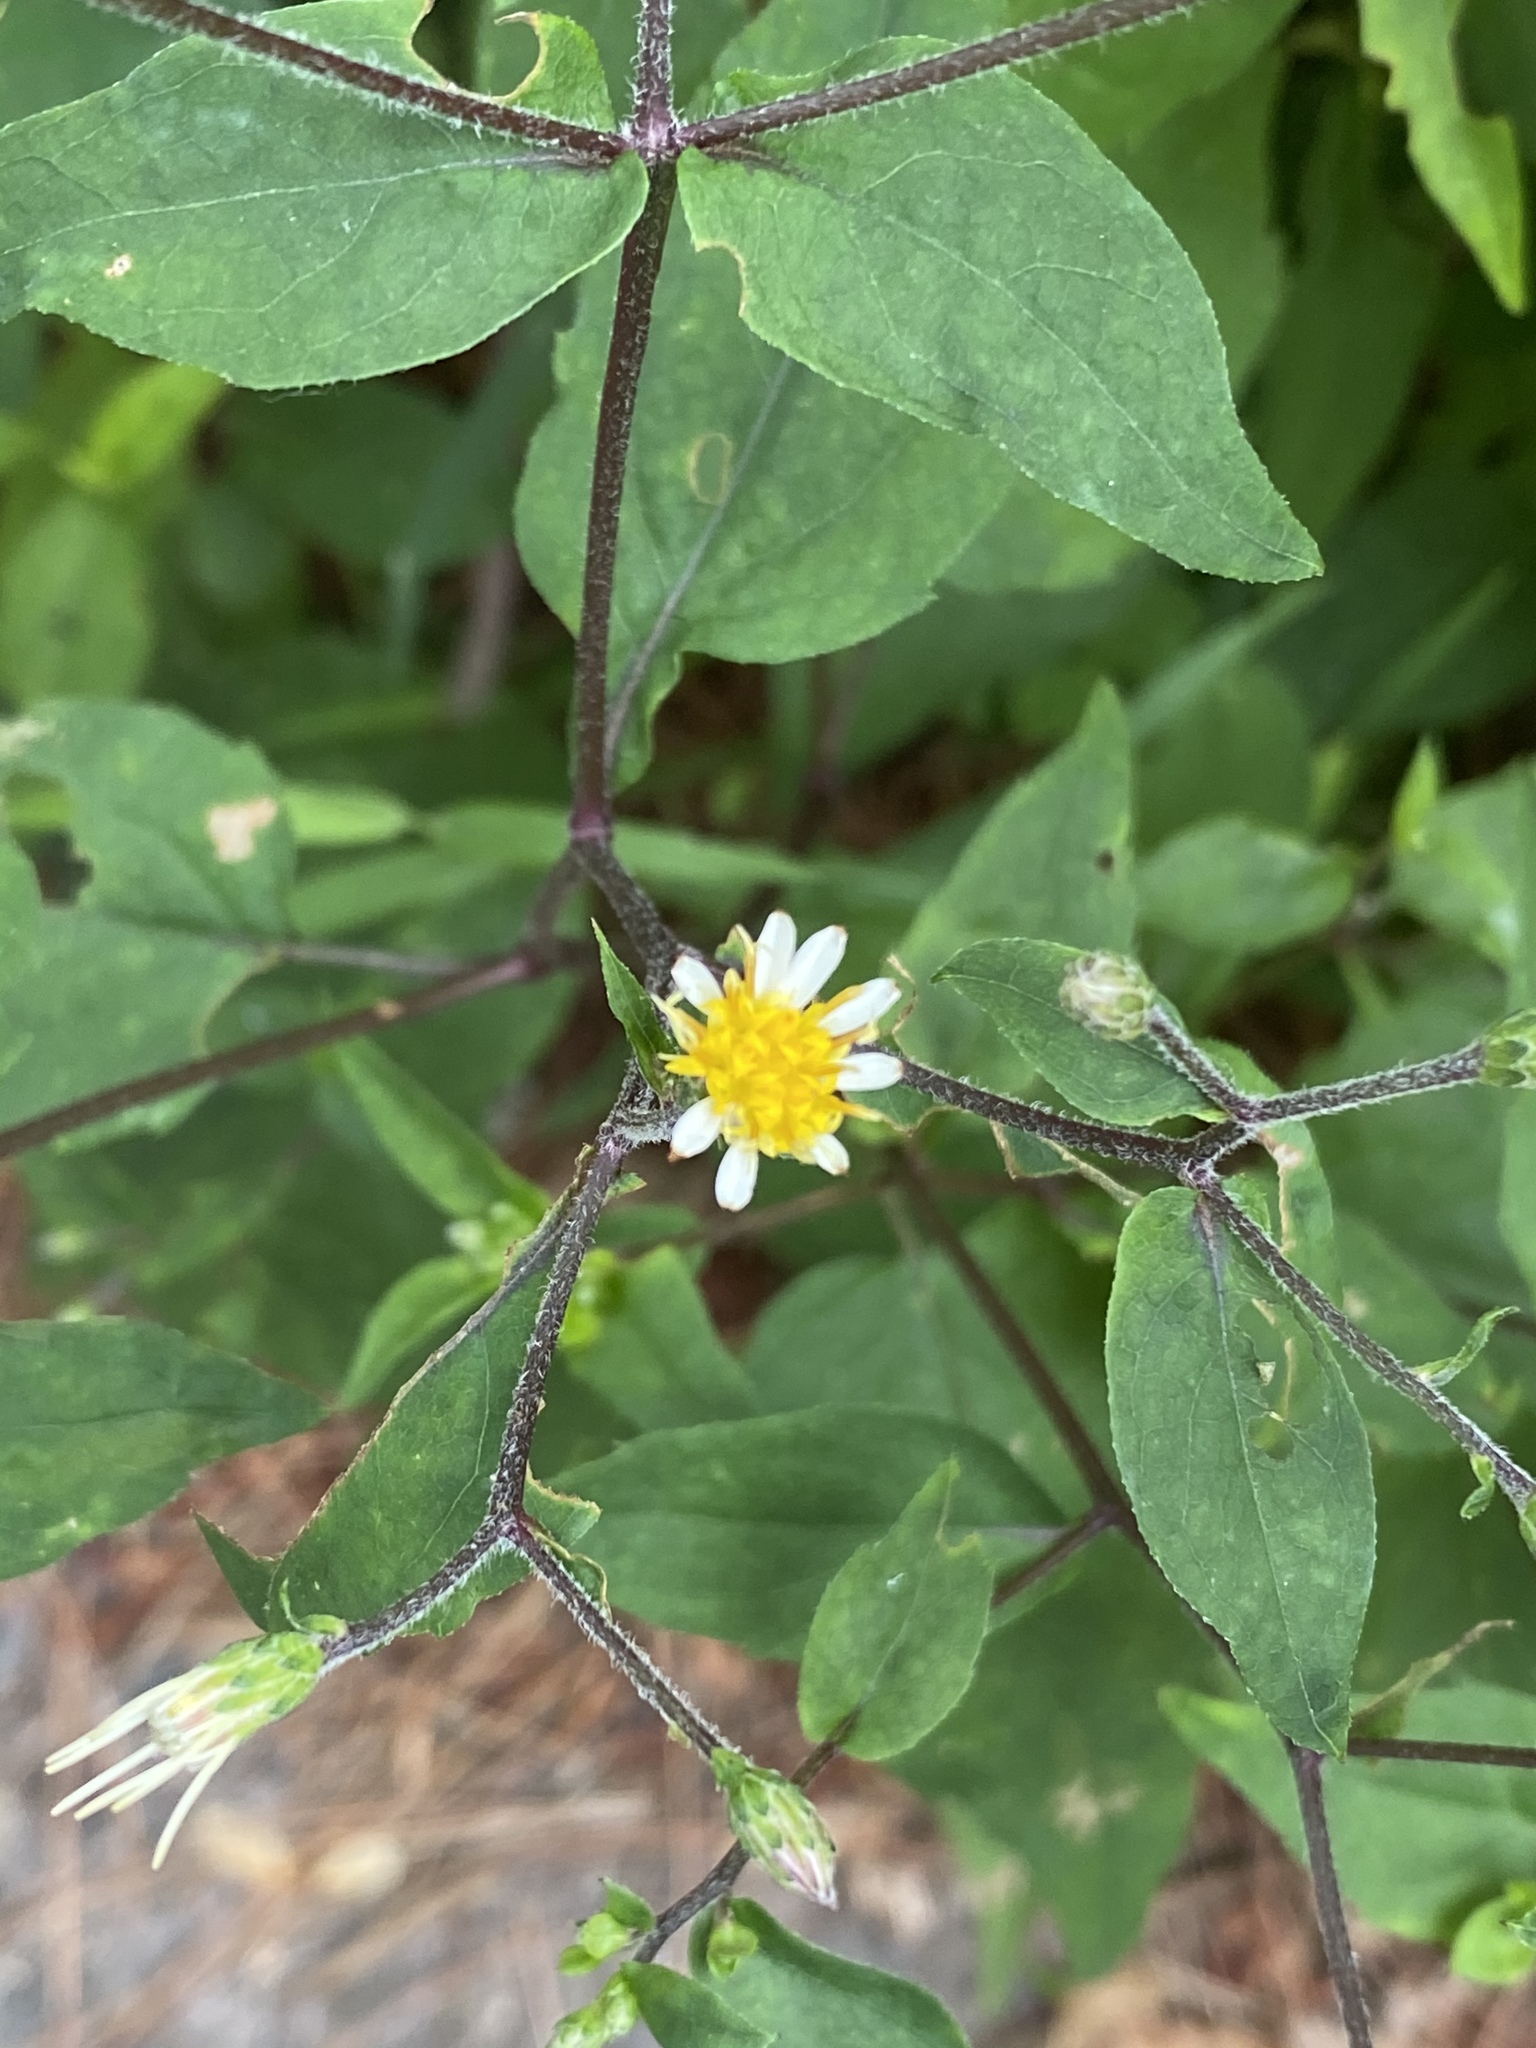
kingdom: Plantae
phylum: Tracheophyta
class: Magnoliopsida
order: Asterales
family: Asteraceae
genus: Eurybia
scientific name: Eurybia divaricata
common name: White wood aster
